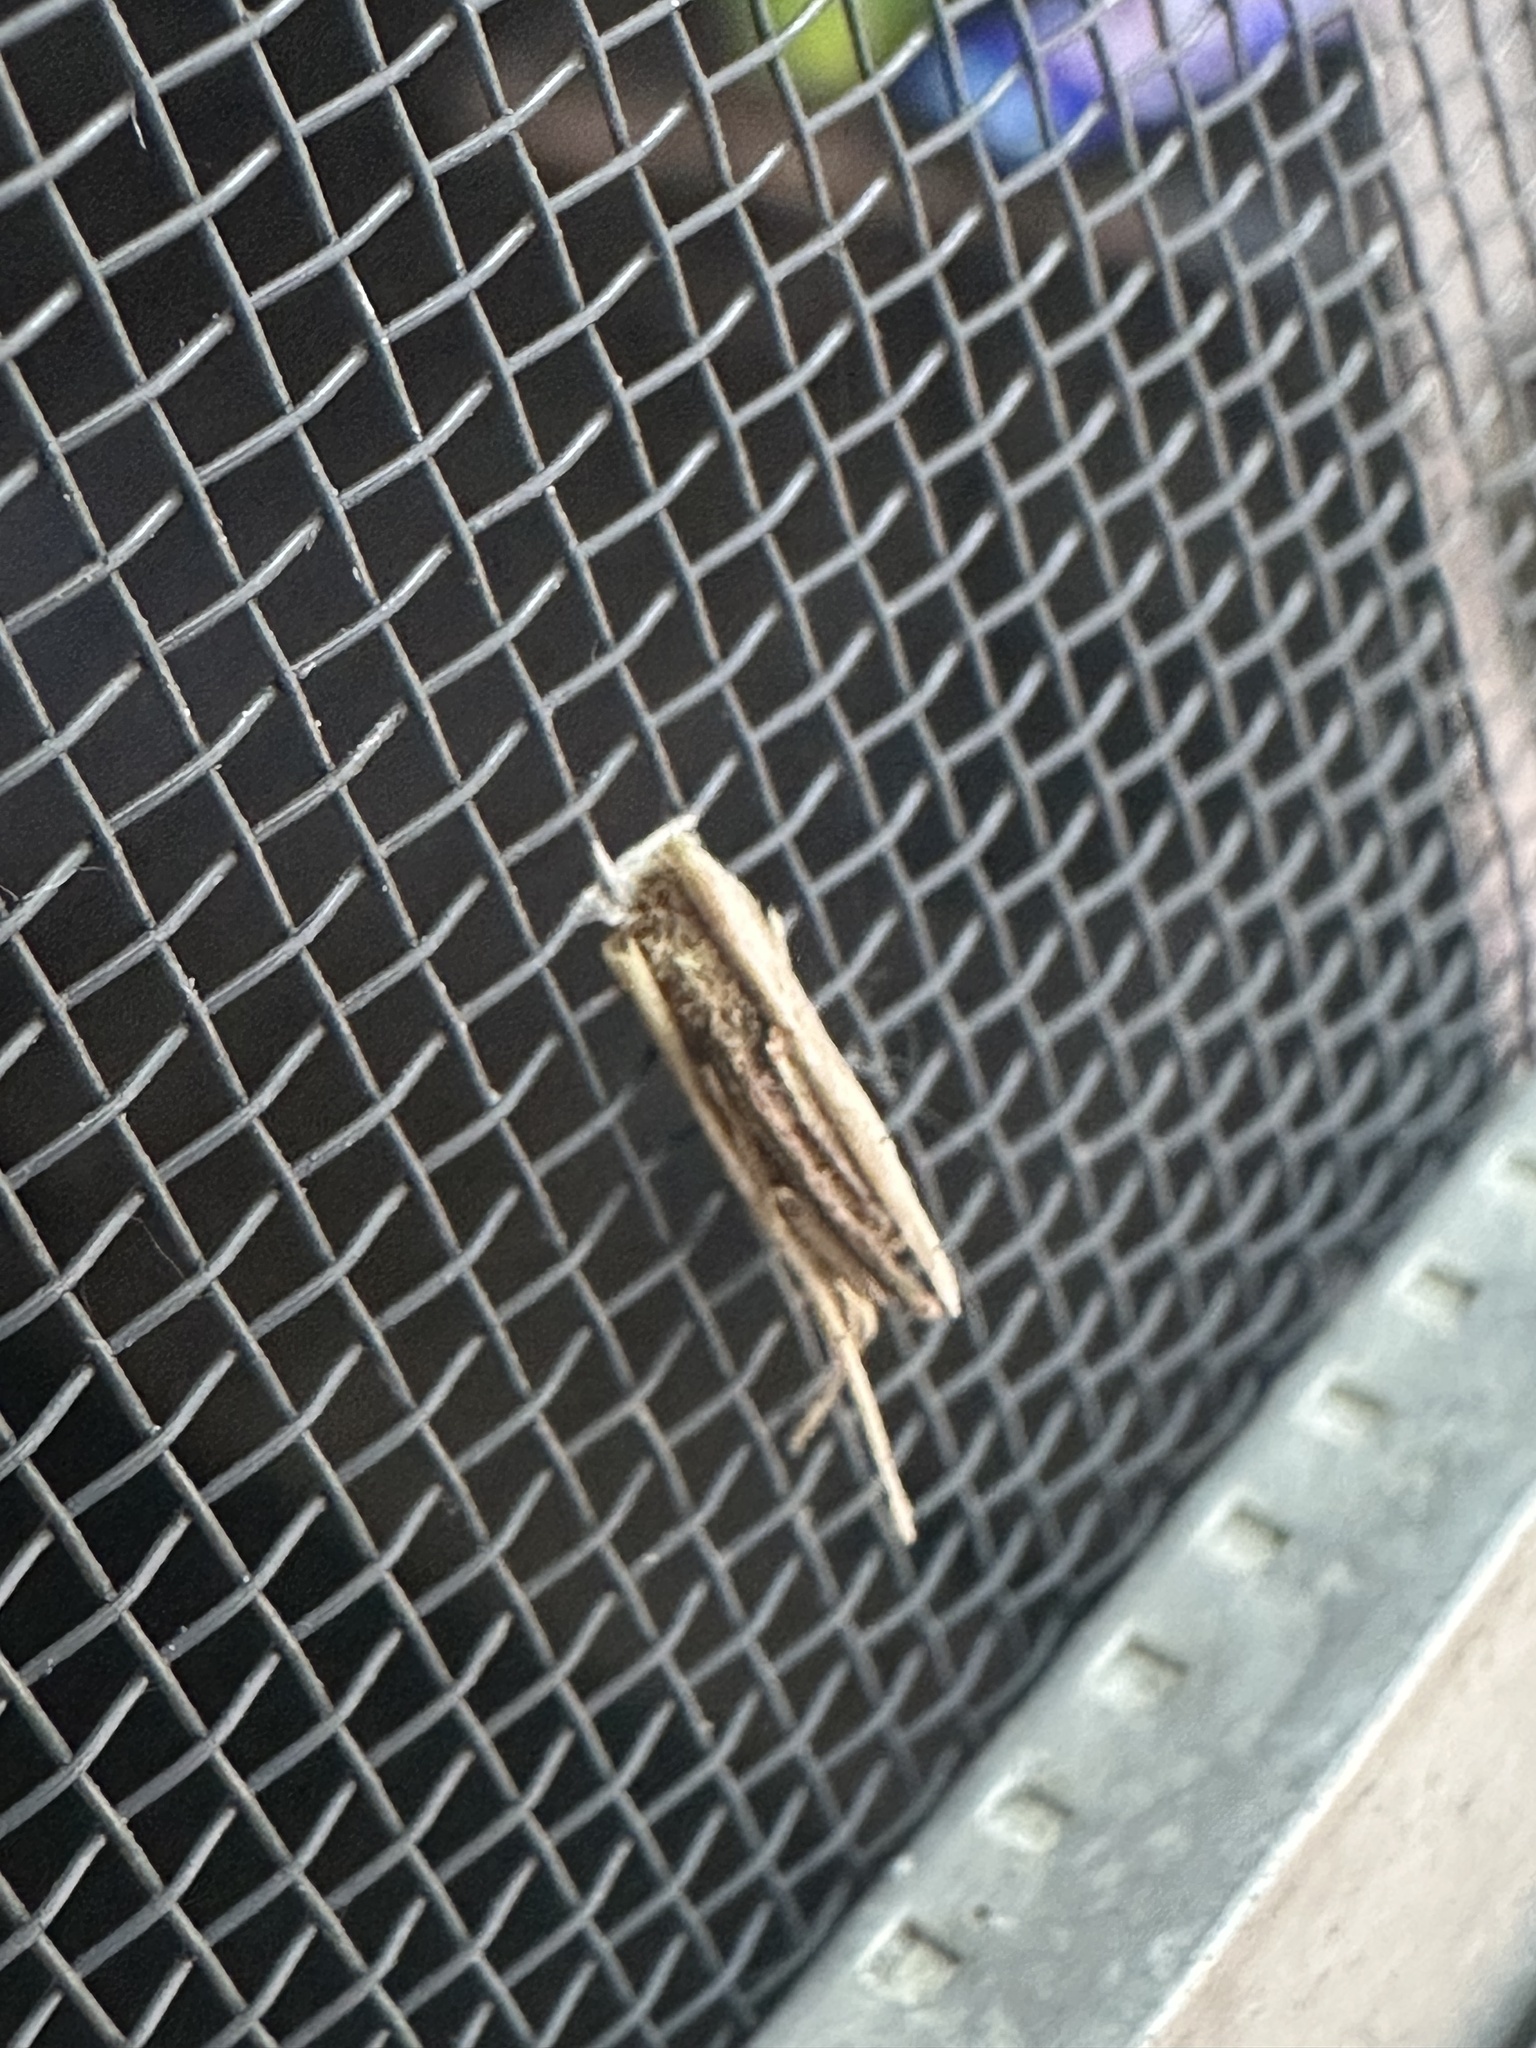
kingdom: Animalia
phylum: Arthropoda
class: Insecta
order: Lepidoptera
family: Psychidae
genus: Psyche
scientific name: Psyche casta
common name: Common sweep
